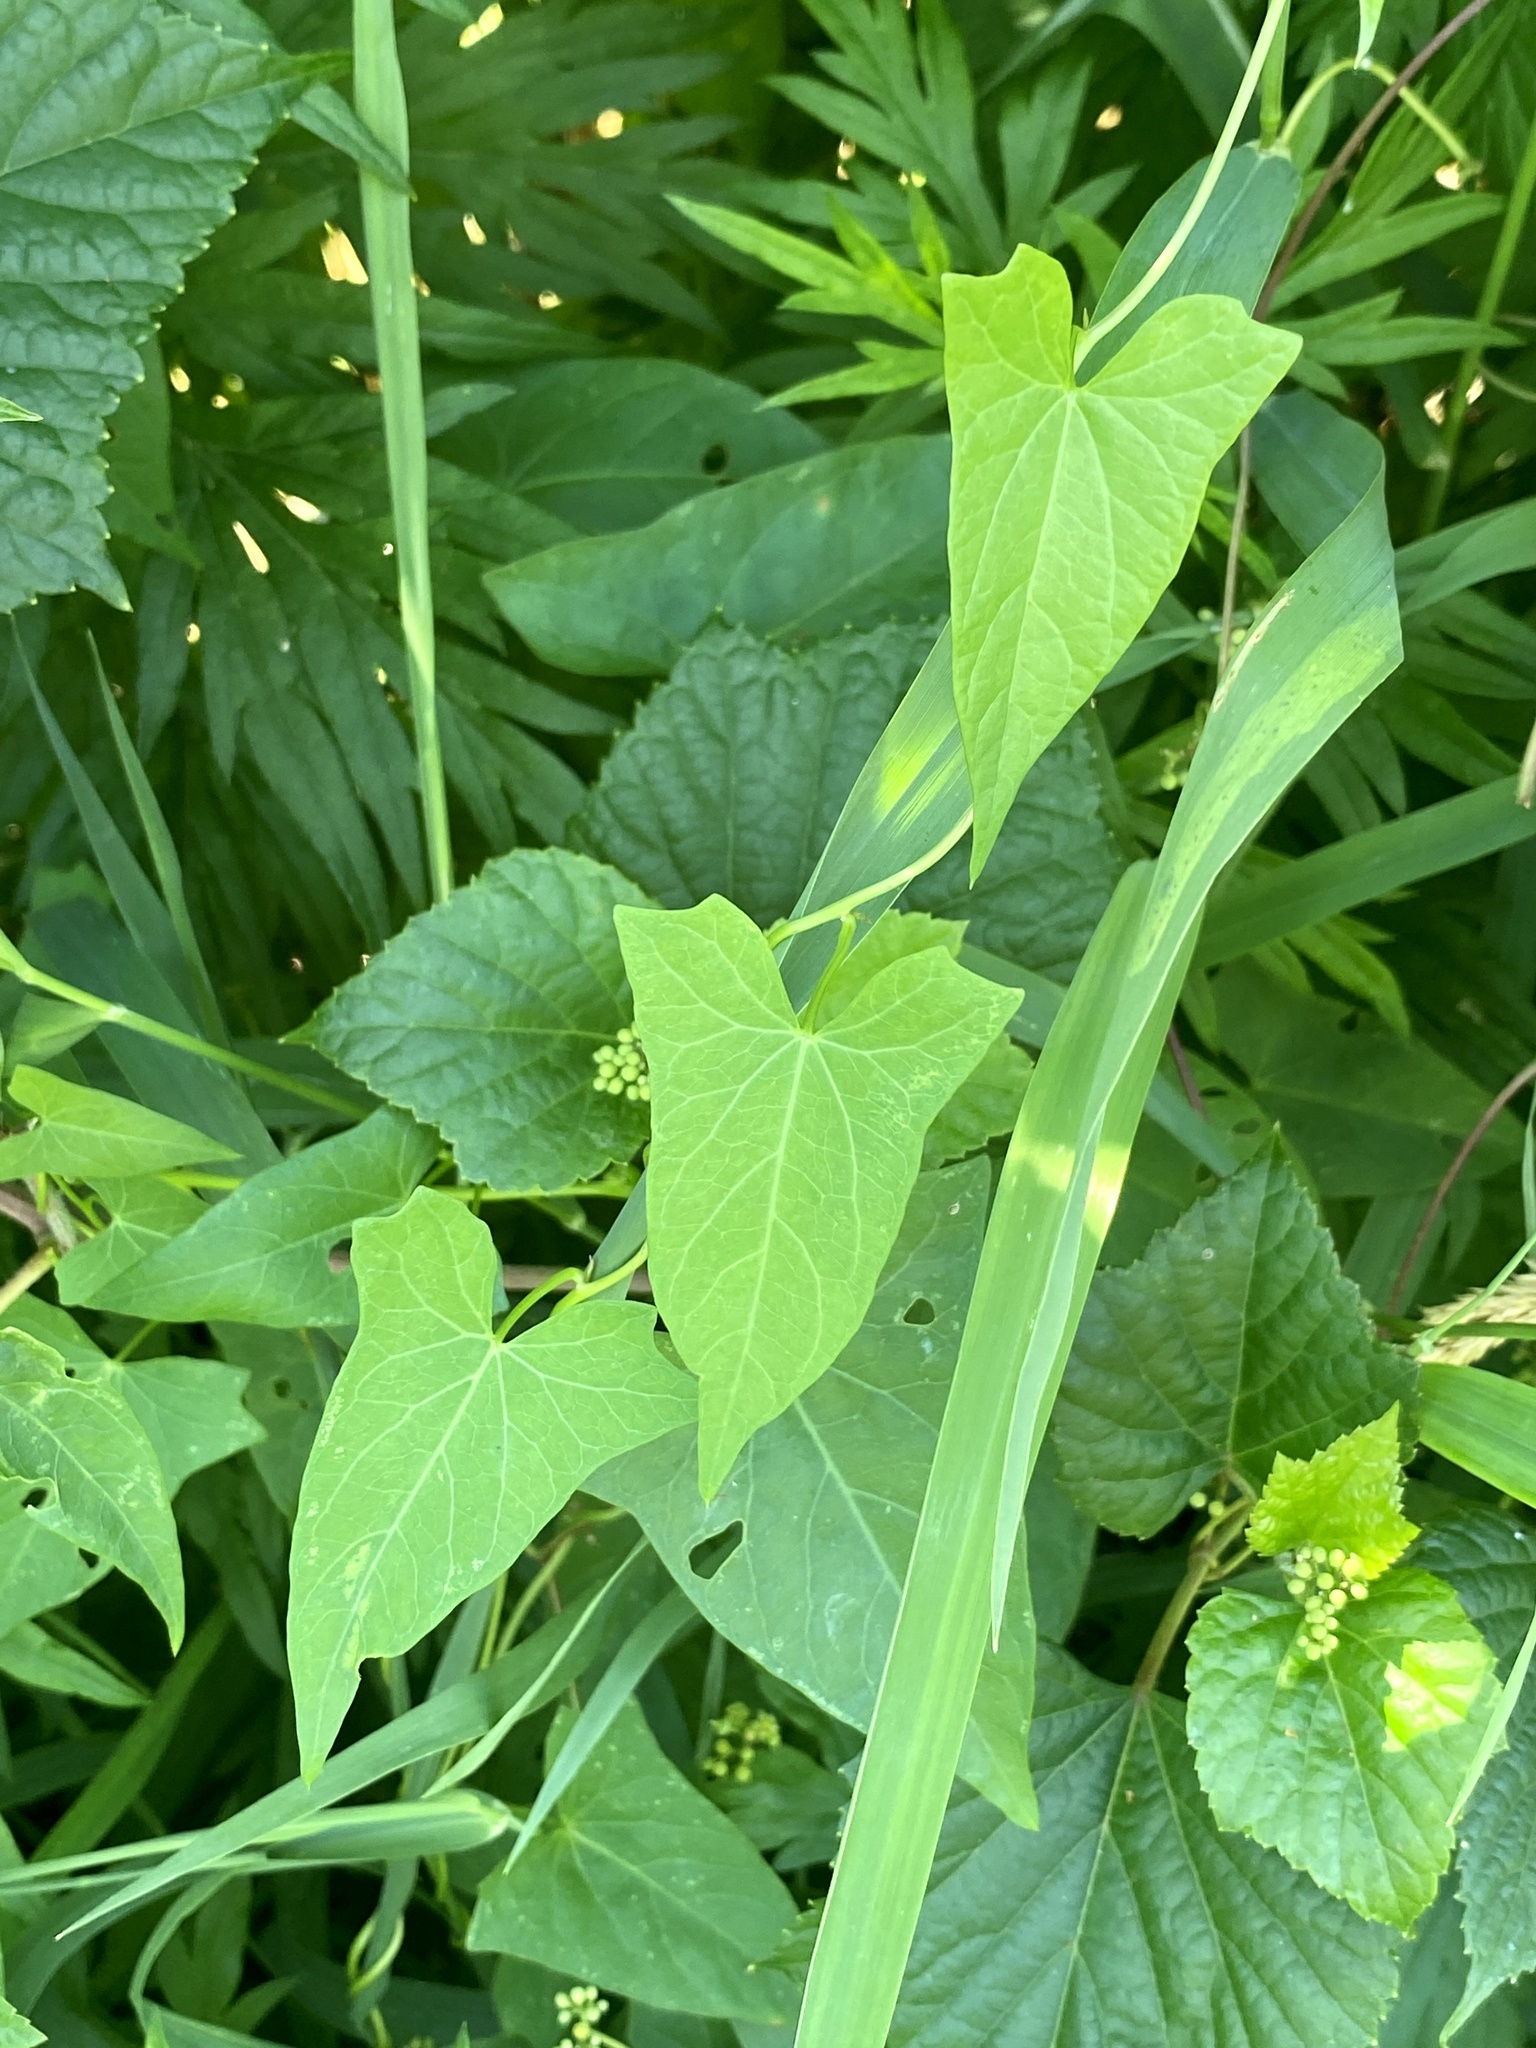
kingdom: Plantae
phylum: Tracheophyta
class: Magnoliopsida
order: Solanales
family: Convolvulaceae
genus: Calystegia
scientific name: Calystegia sepium
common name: Hedge bindweed
